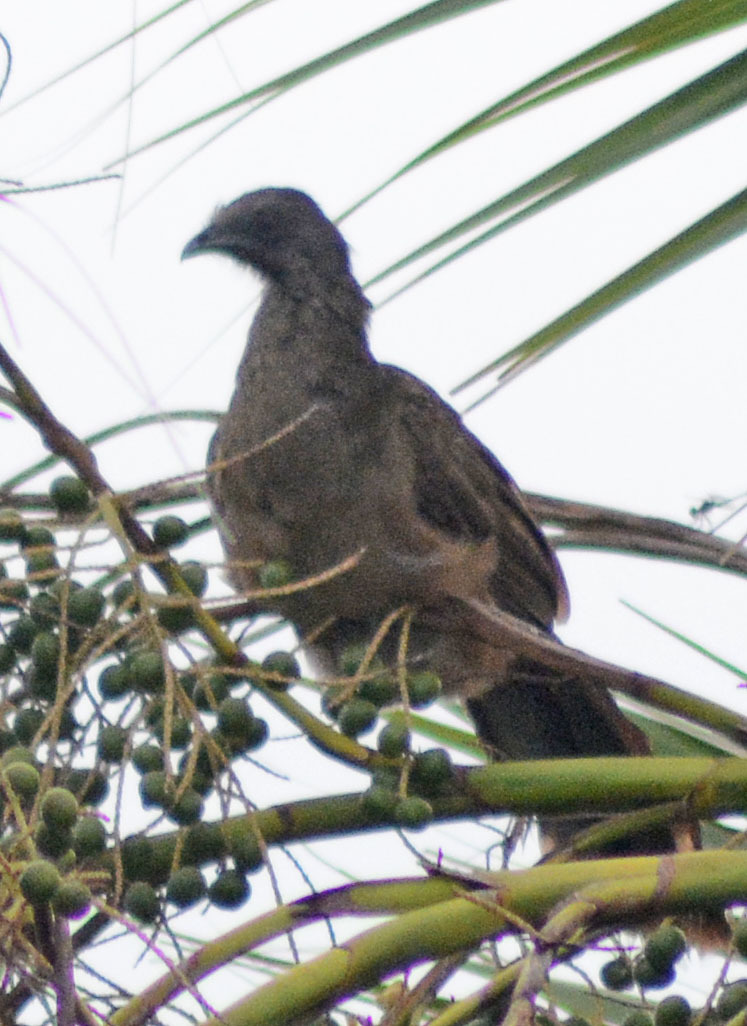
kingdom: Animalia
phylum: Chordata
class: Aves
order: Galliformes
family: Cracidae
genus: Ortalis
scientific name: Ortalis vetula
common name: Plain chachalaca
